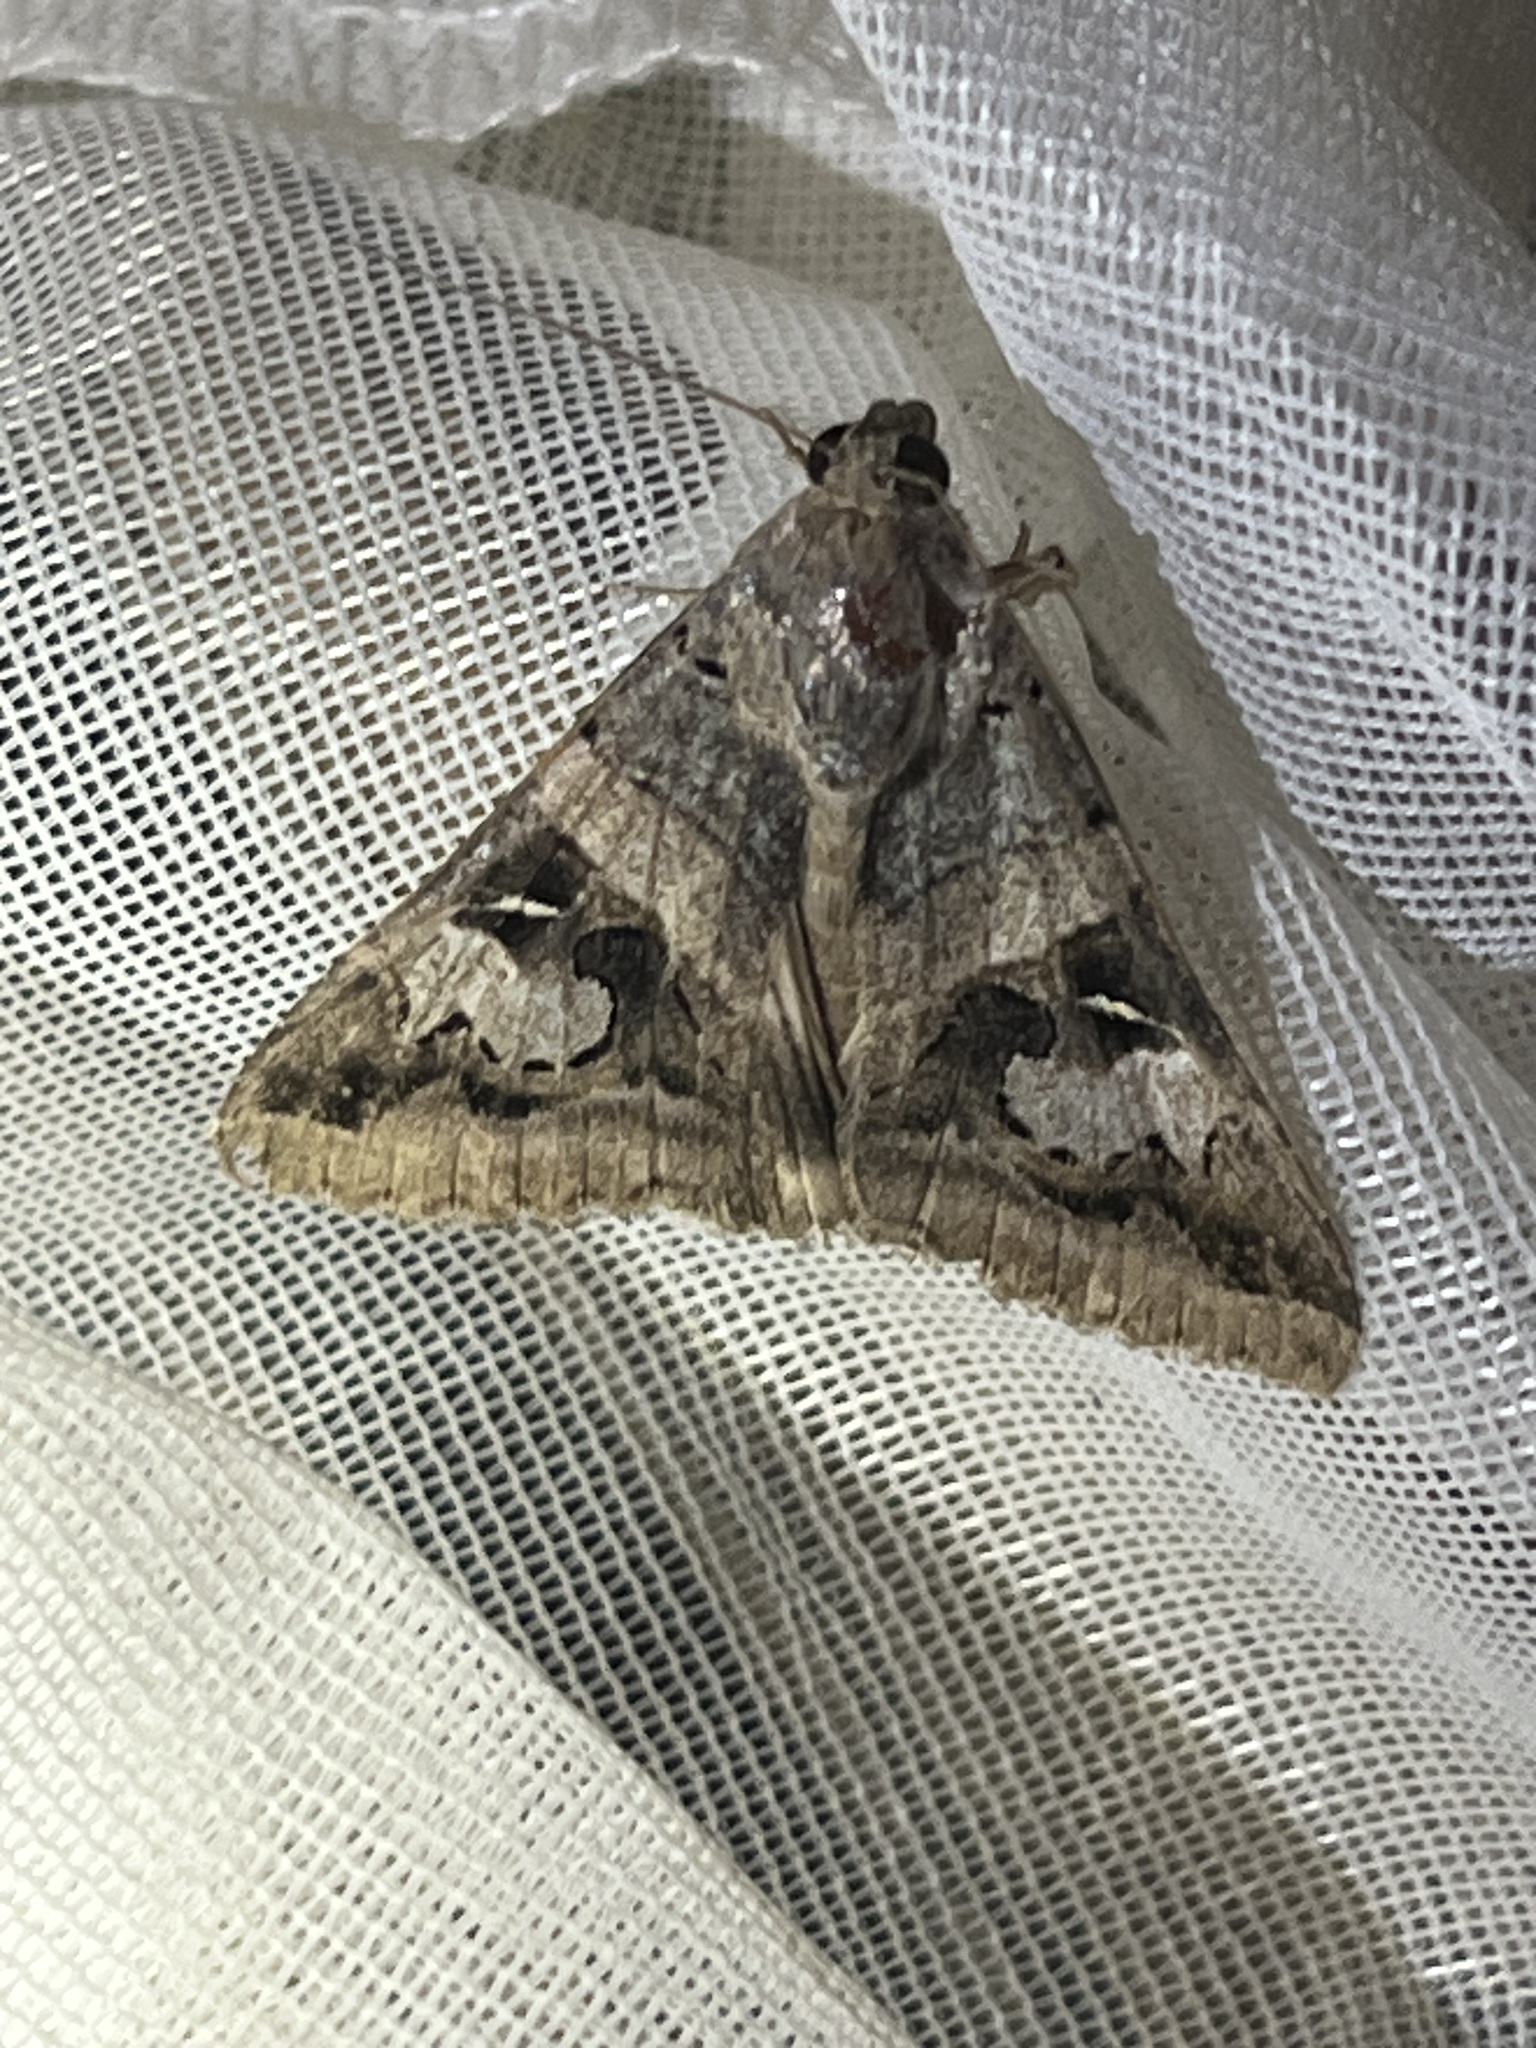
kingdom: Animalia
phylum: Arthropoda
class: Insecta
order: Lepidoptera
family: Erebidae
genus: Melipotis
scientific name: Melipotis indomita
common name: Moth
